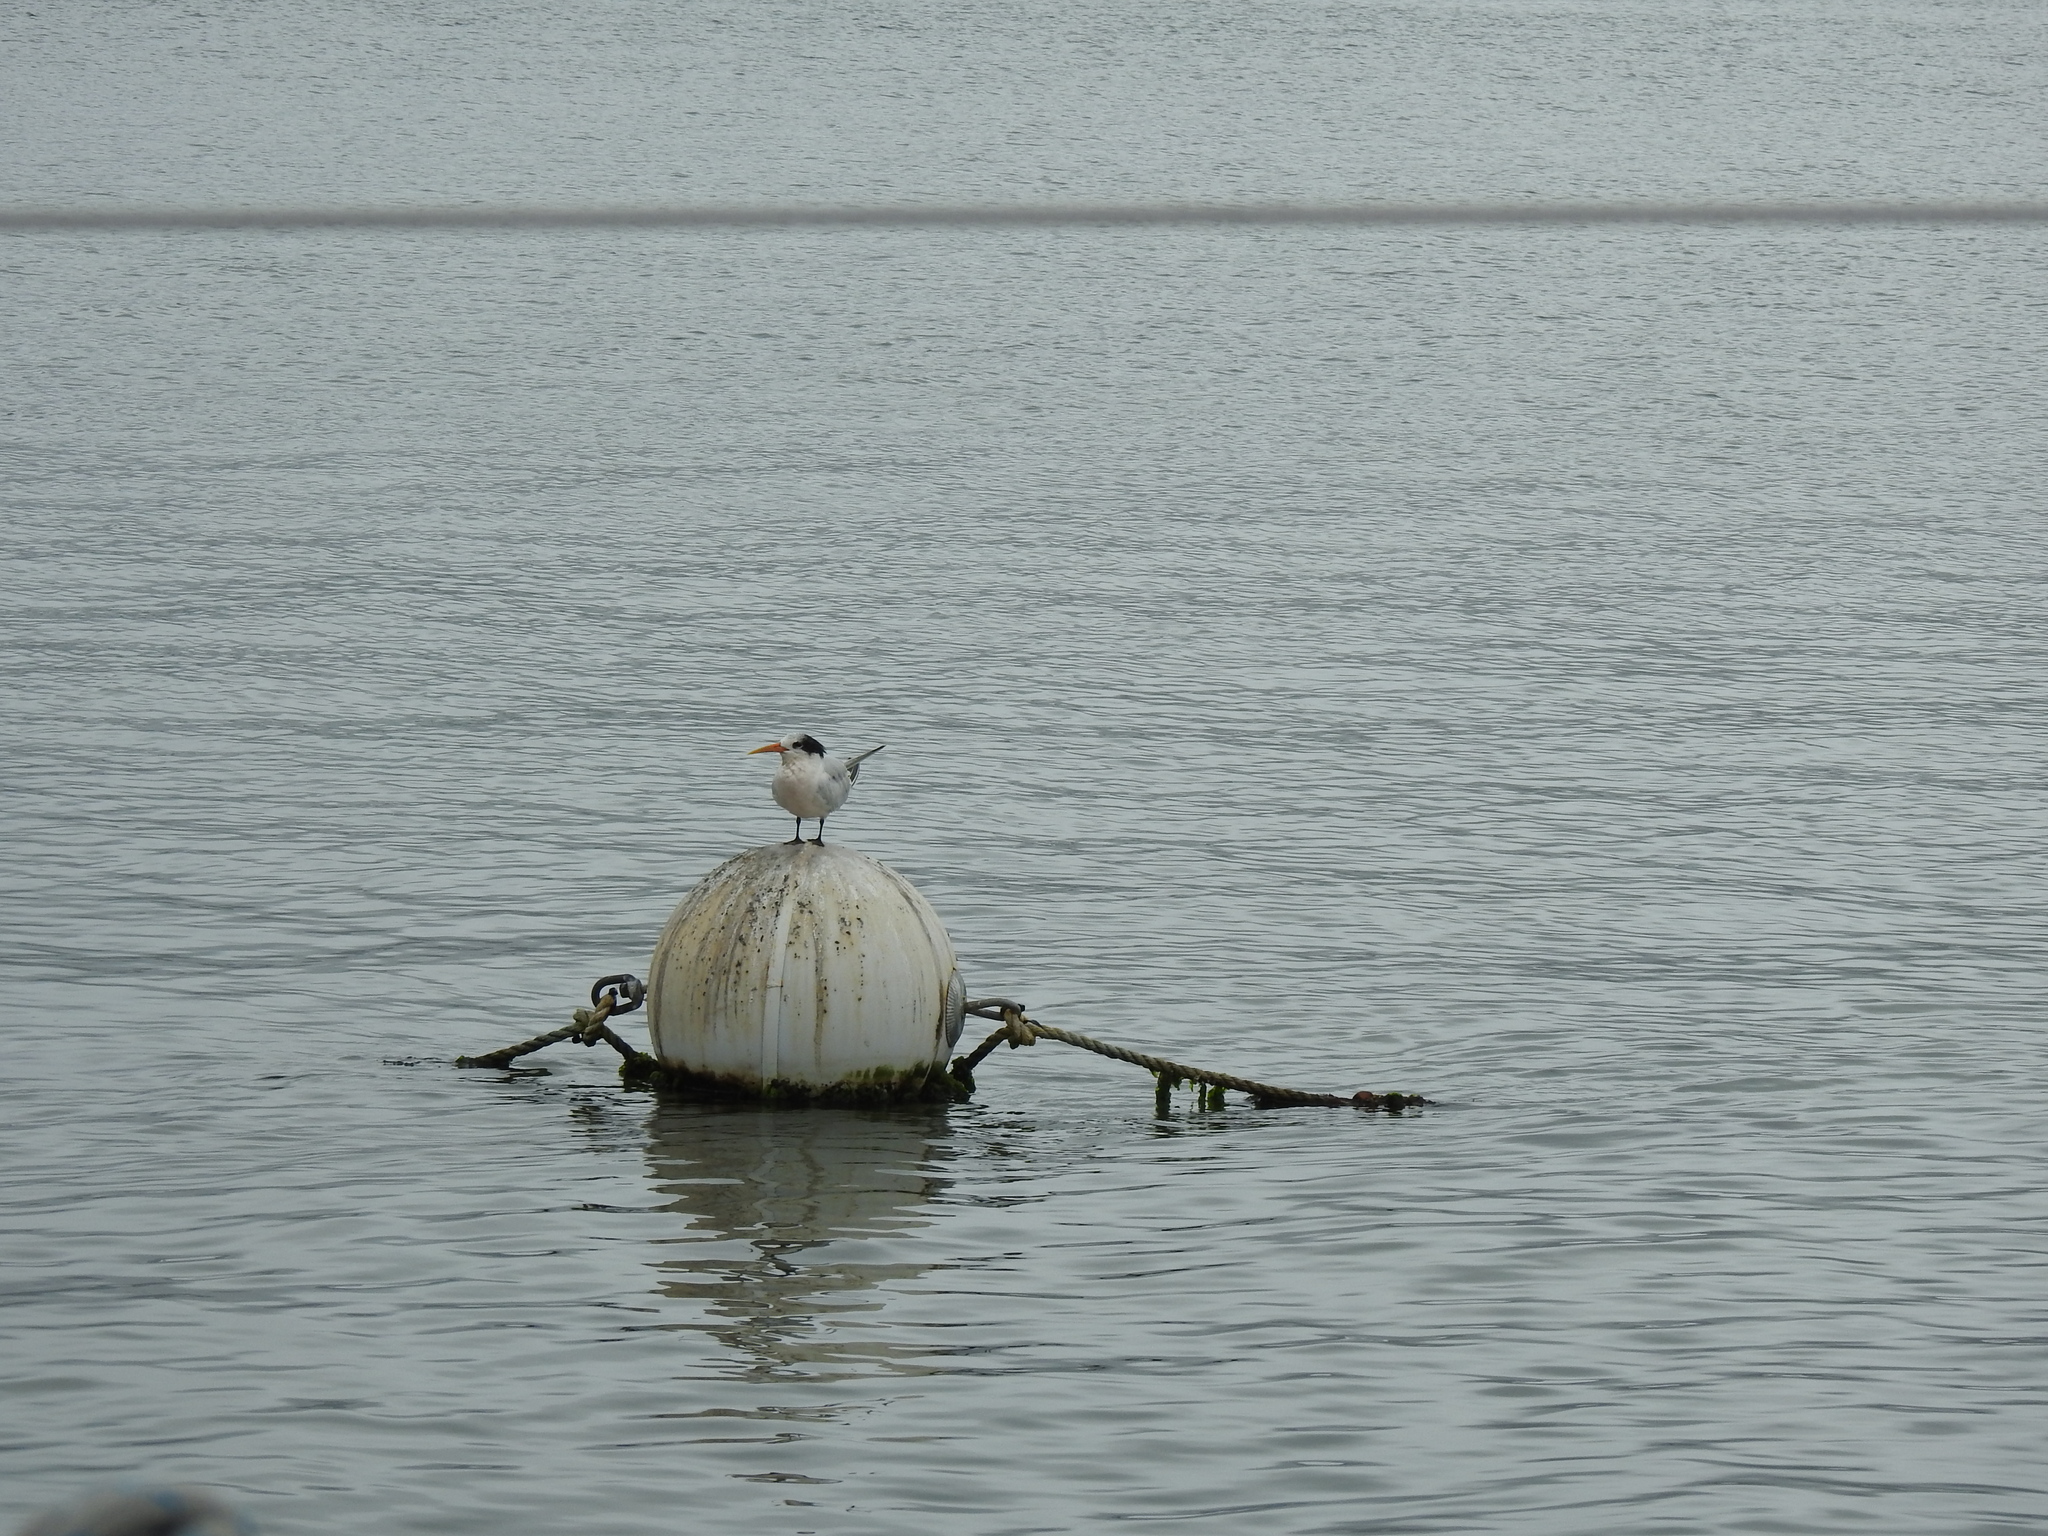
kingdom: Animalia
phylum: Chordata
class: Aves
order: Charadriiformes
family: Laridae
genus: Thalasseus
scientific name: Thalasseus elegans
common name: Elegant tern
